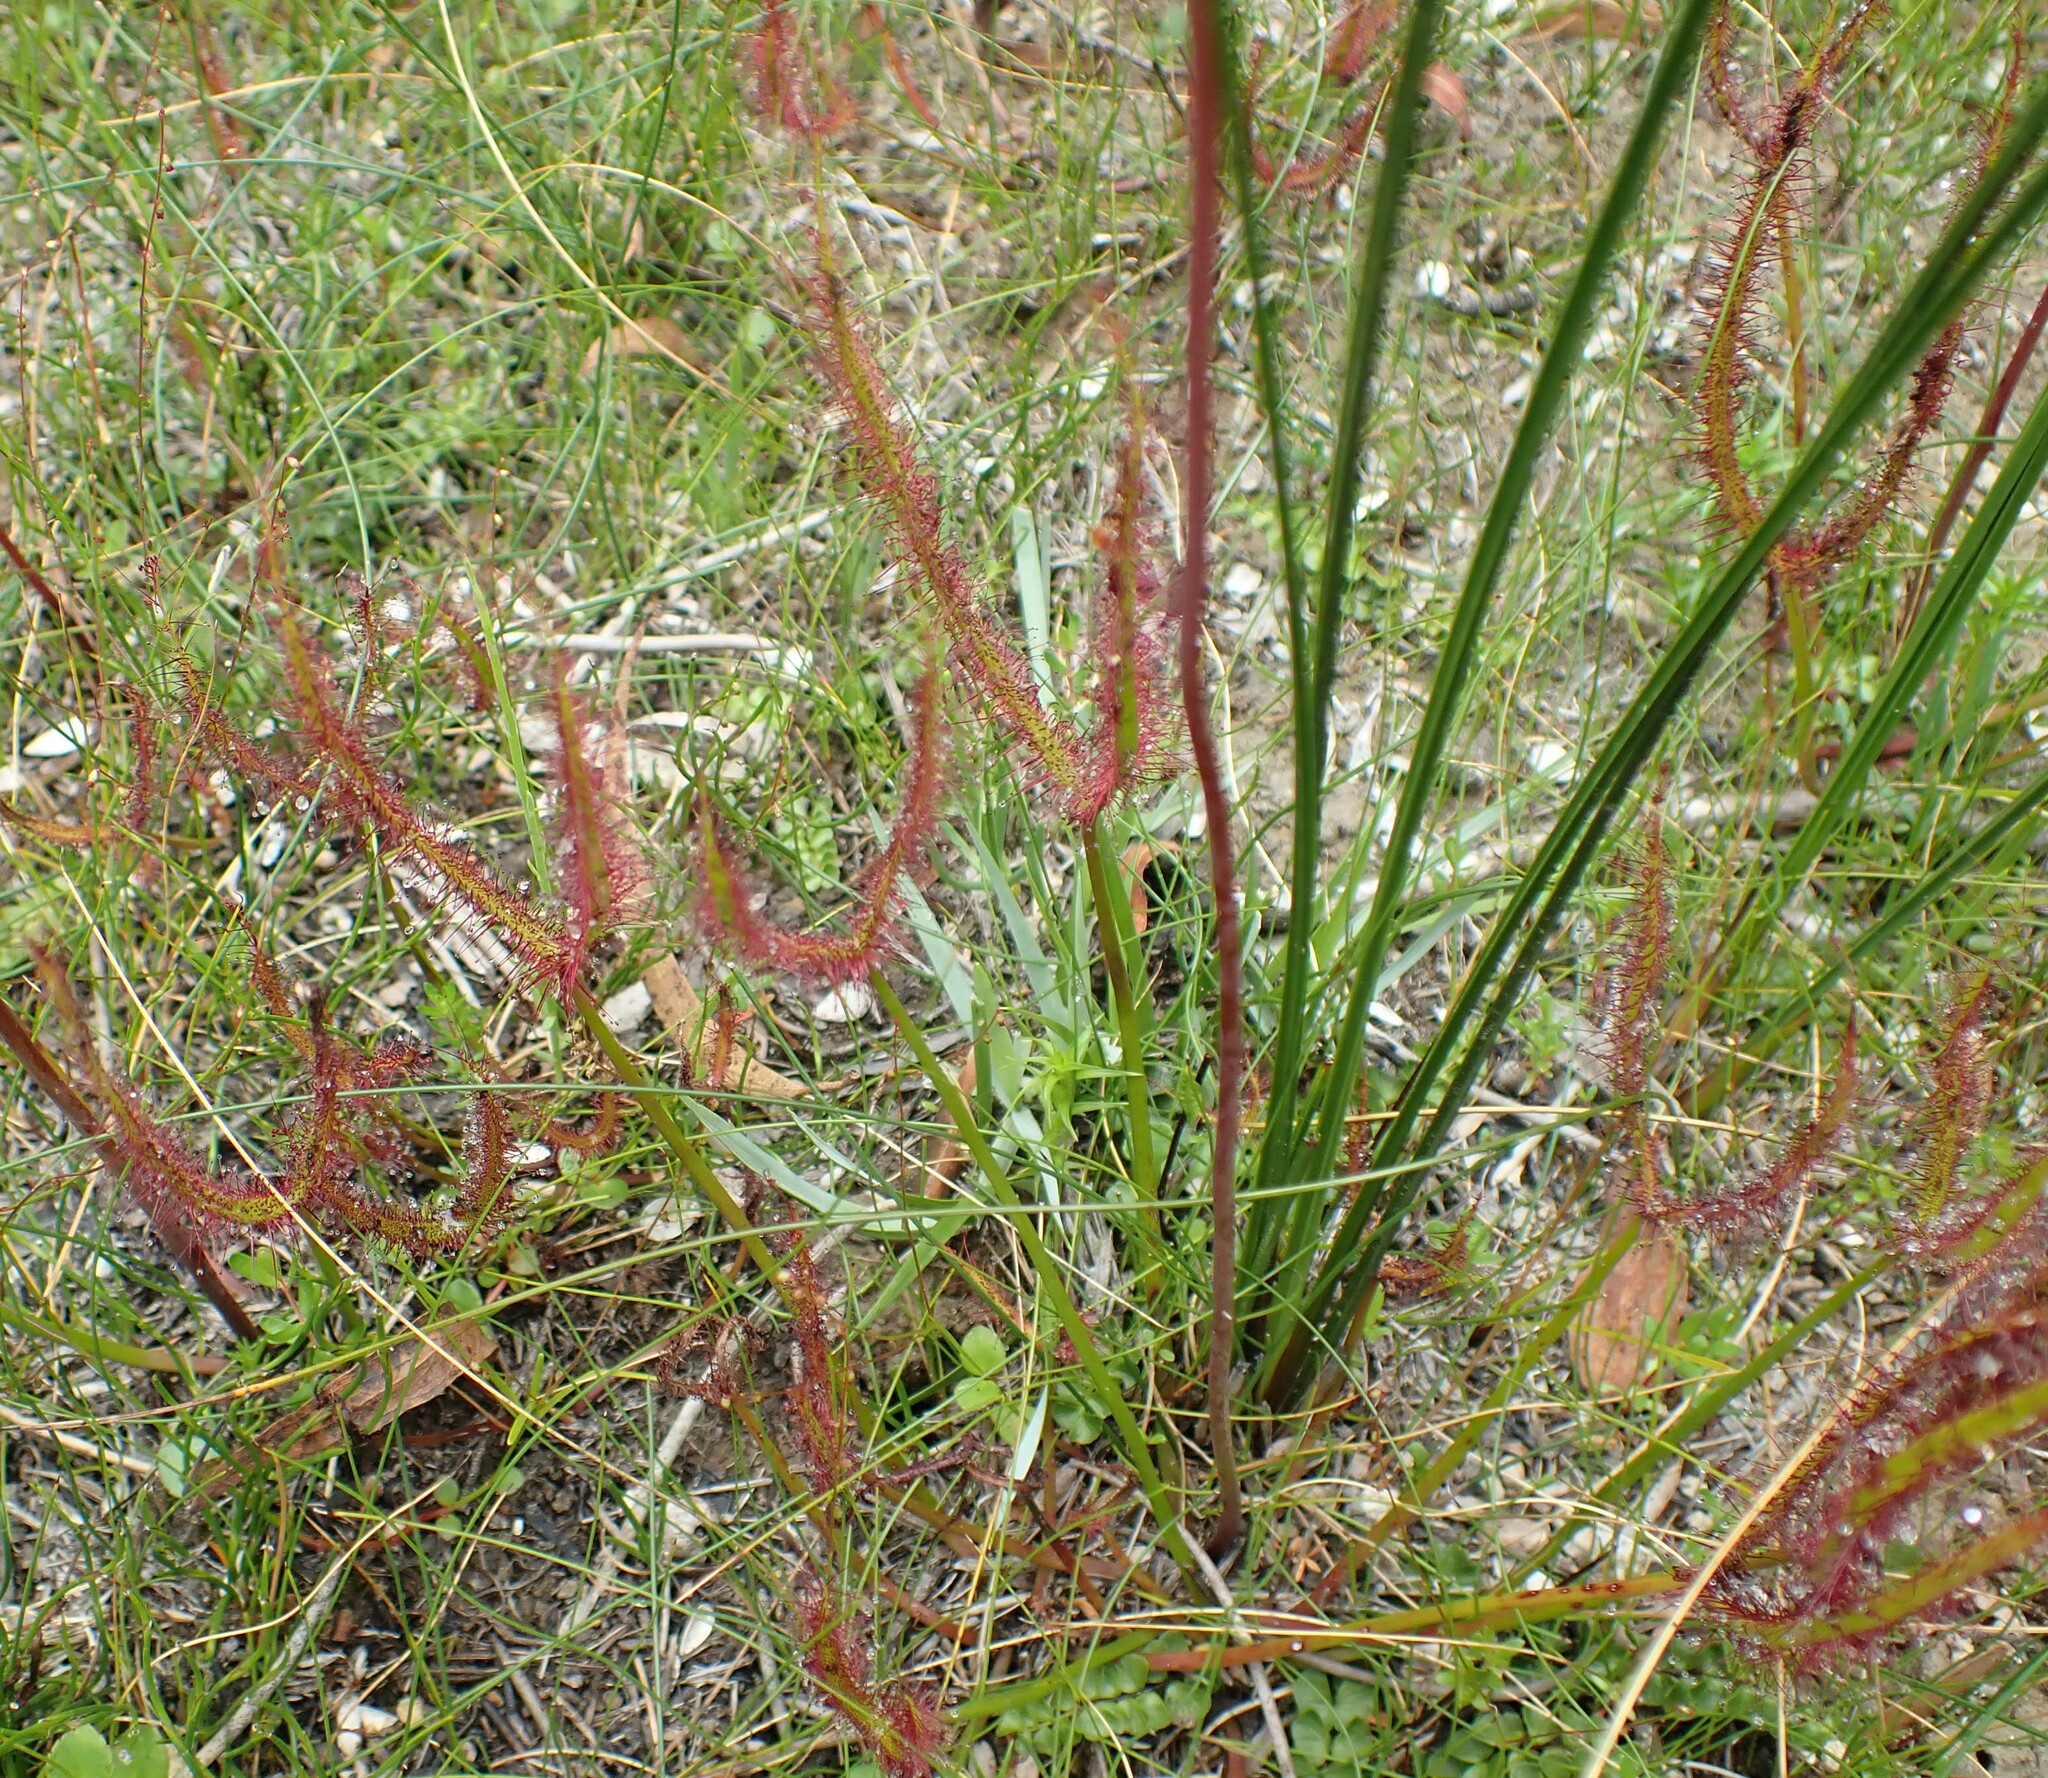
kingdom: Plantae
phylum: Tracheophyta
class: Magnoliopsida
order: Caryophyllales
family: Droseraceae
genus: Drosera
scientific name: Drosera binata
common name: Forked sundew
